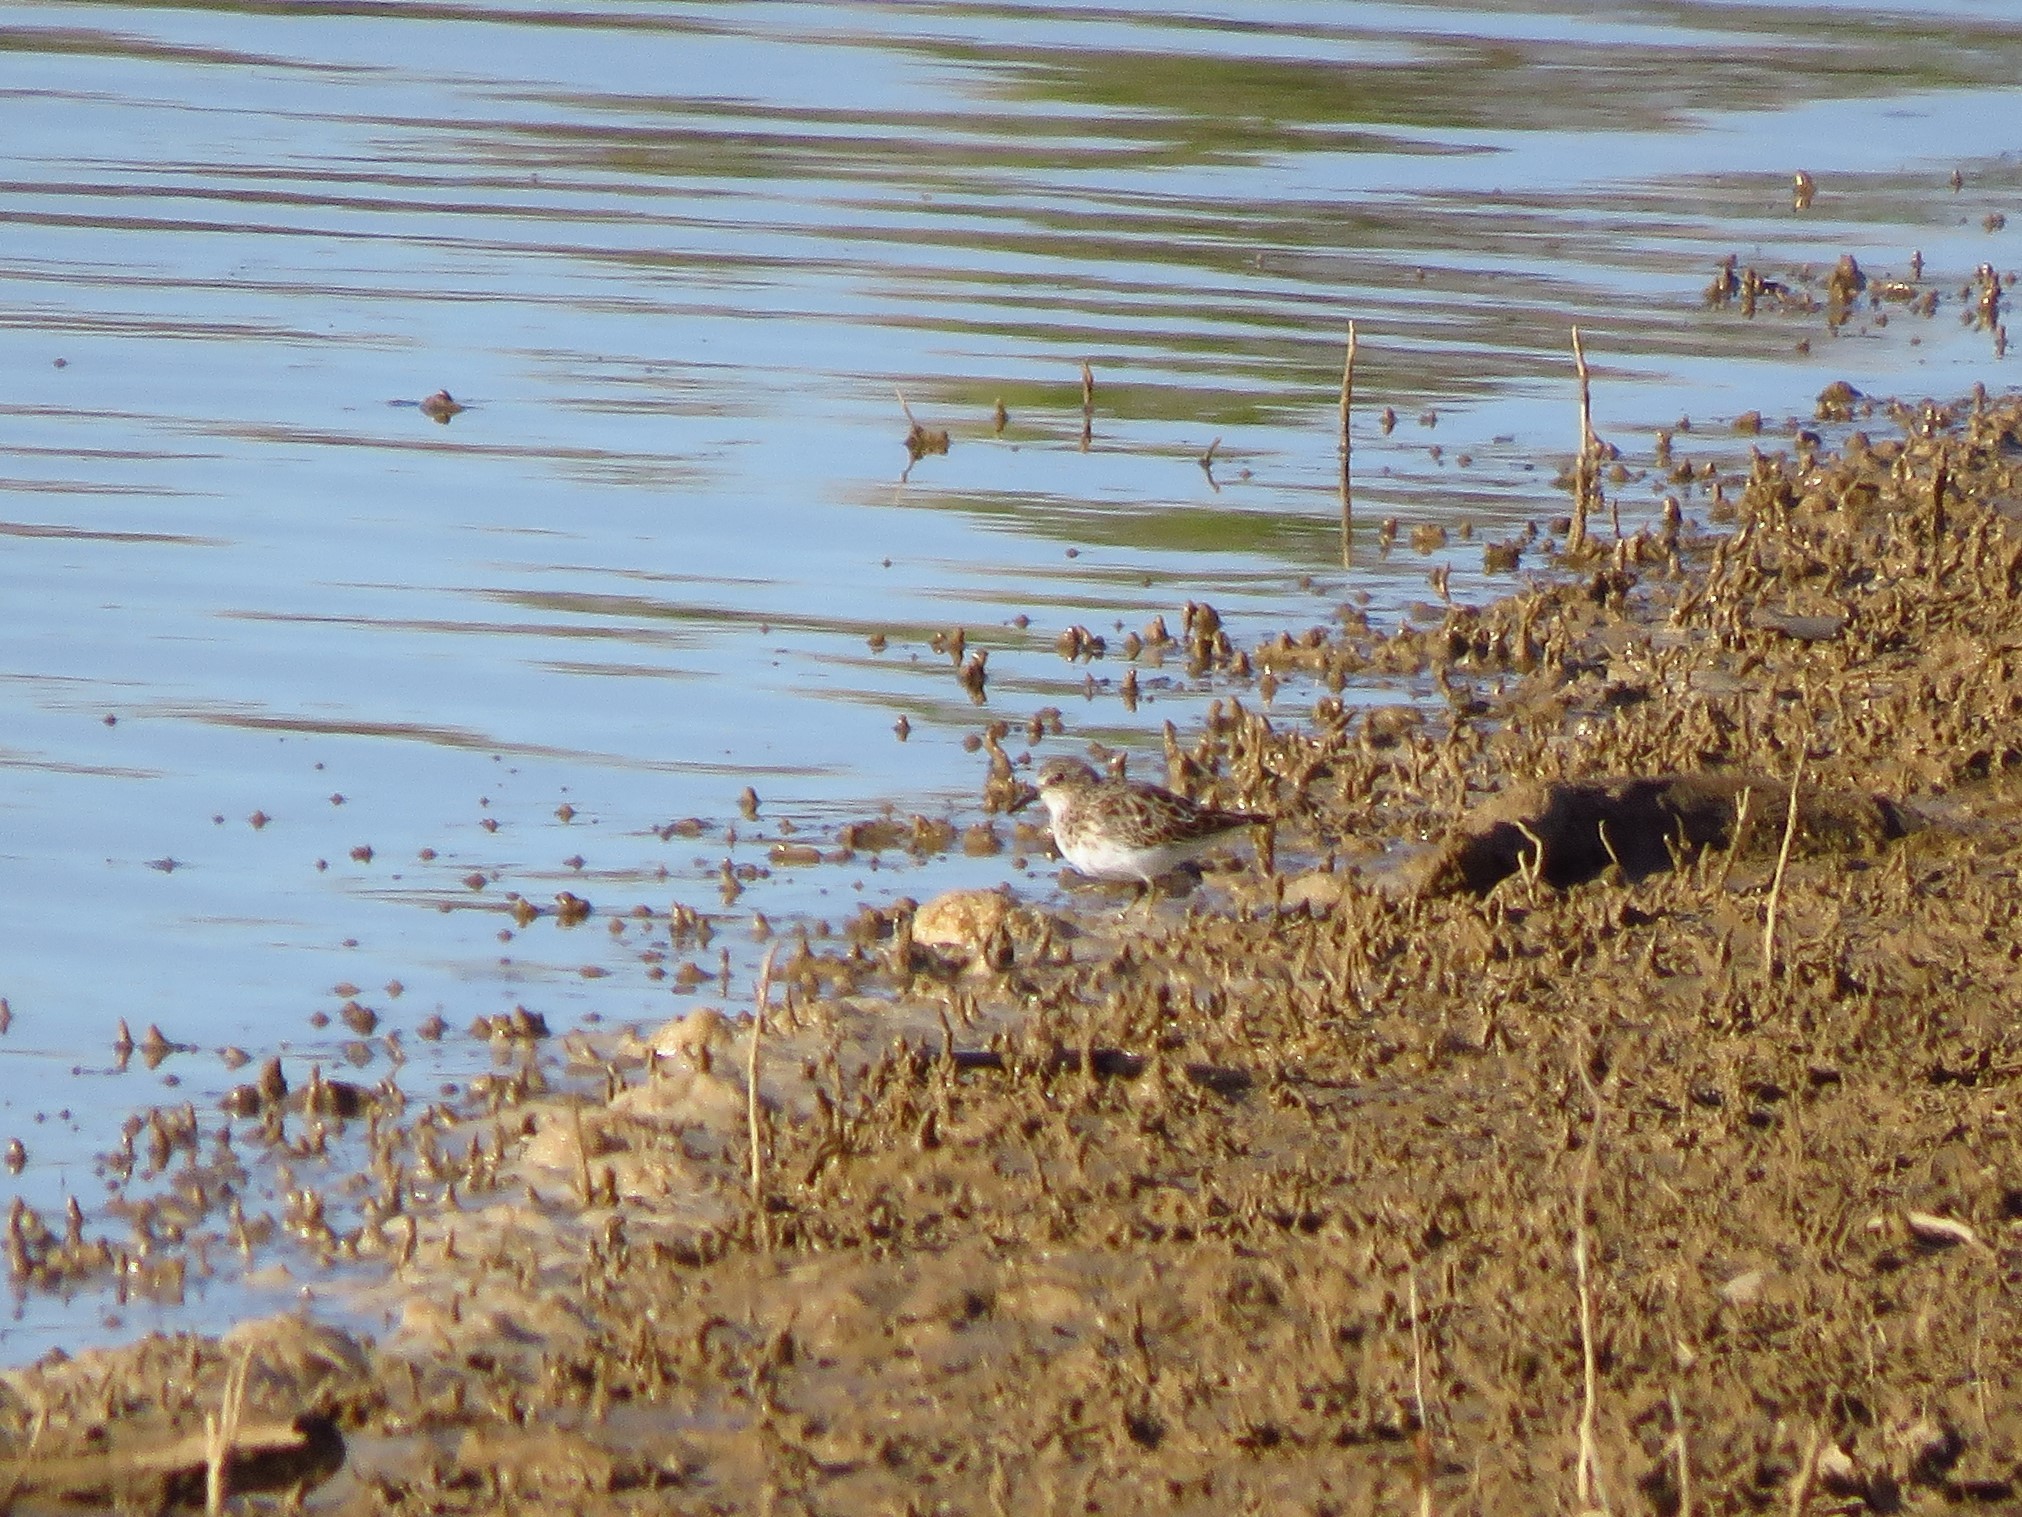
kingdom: Animalia
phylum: Chordata
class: Aves
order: Charadriiformes
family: Scolopacidae
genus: Calidris
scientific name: Calidris minutilla
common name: Least sandpiper
